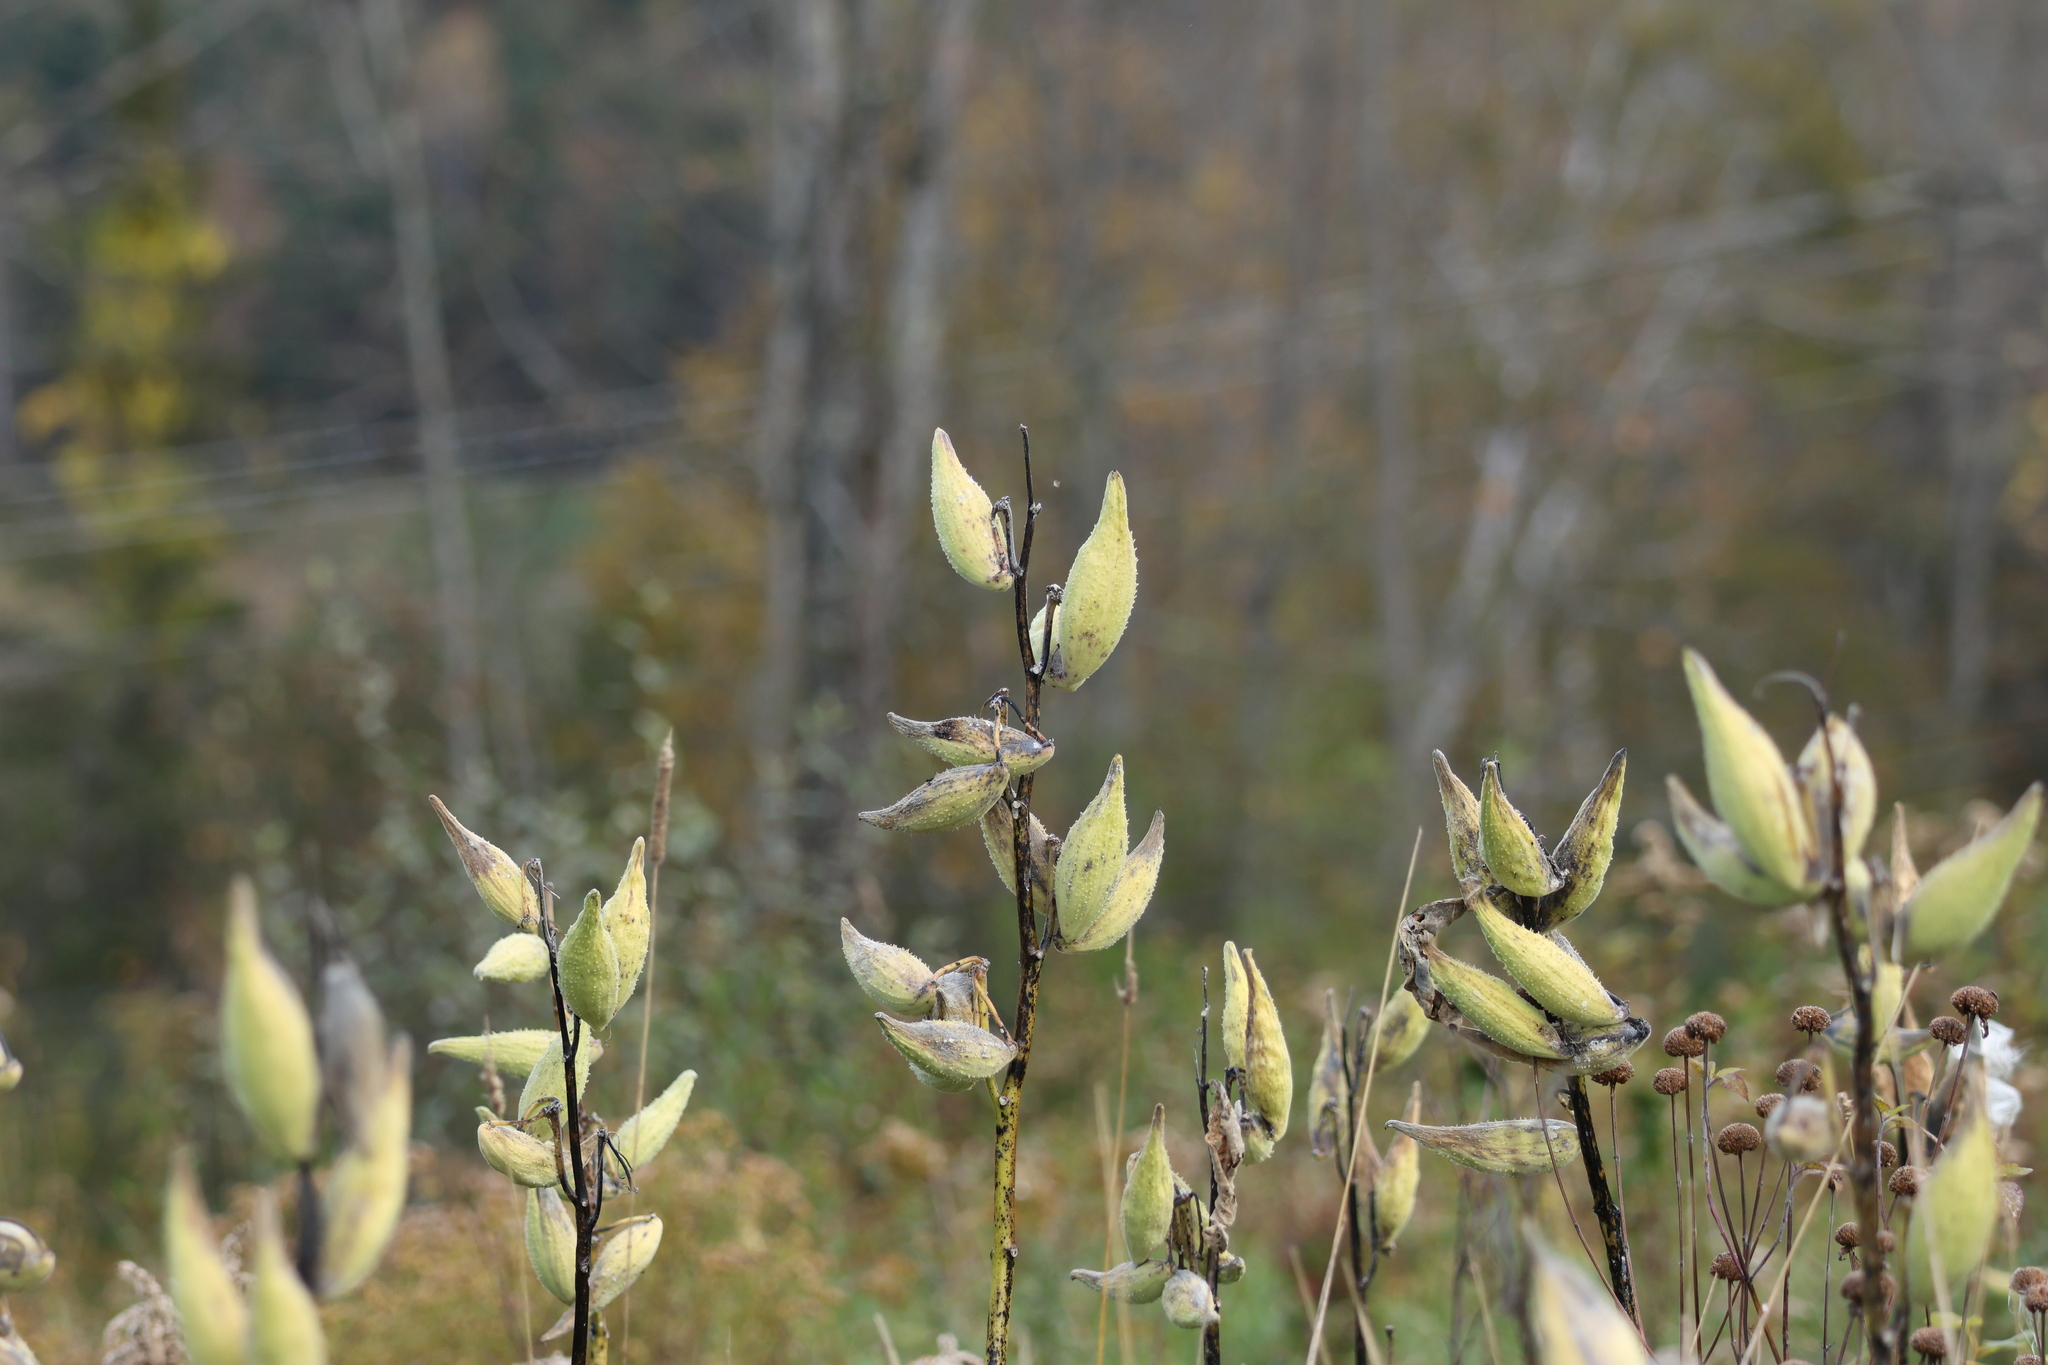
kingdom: Plantae
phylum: Tracheophyta
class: Magnoliopsida
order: Gentianales
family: Apocynaceae
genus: Asclepias
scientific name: Asclepias syriaca
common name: Common milkweed
